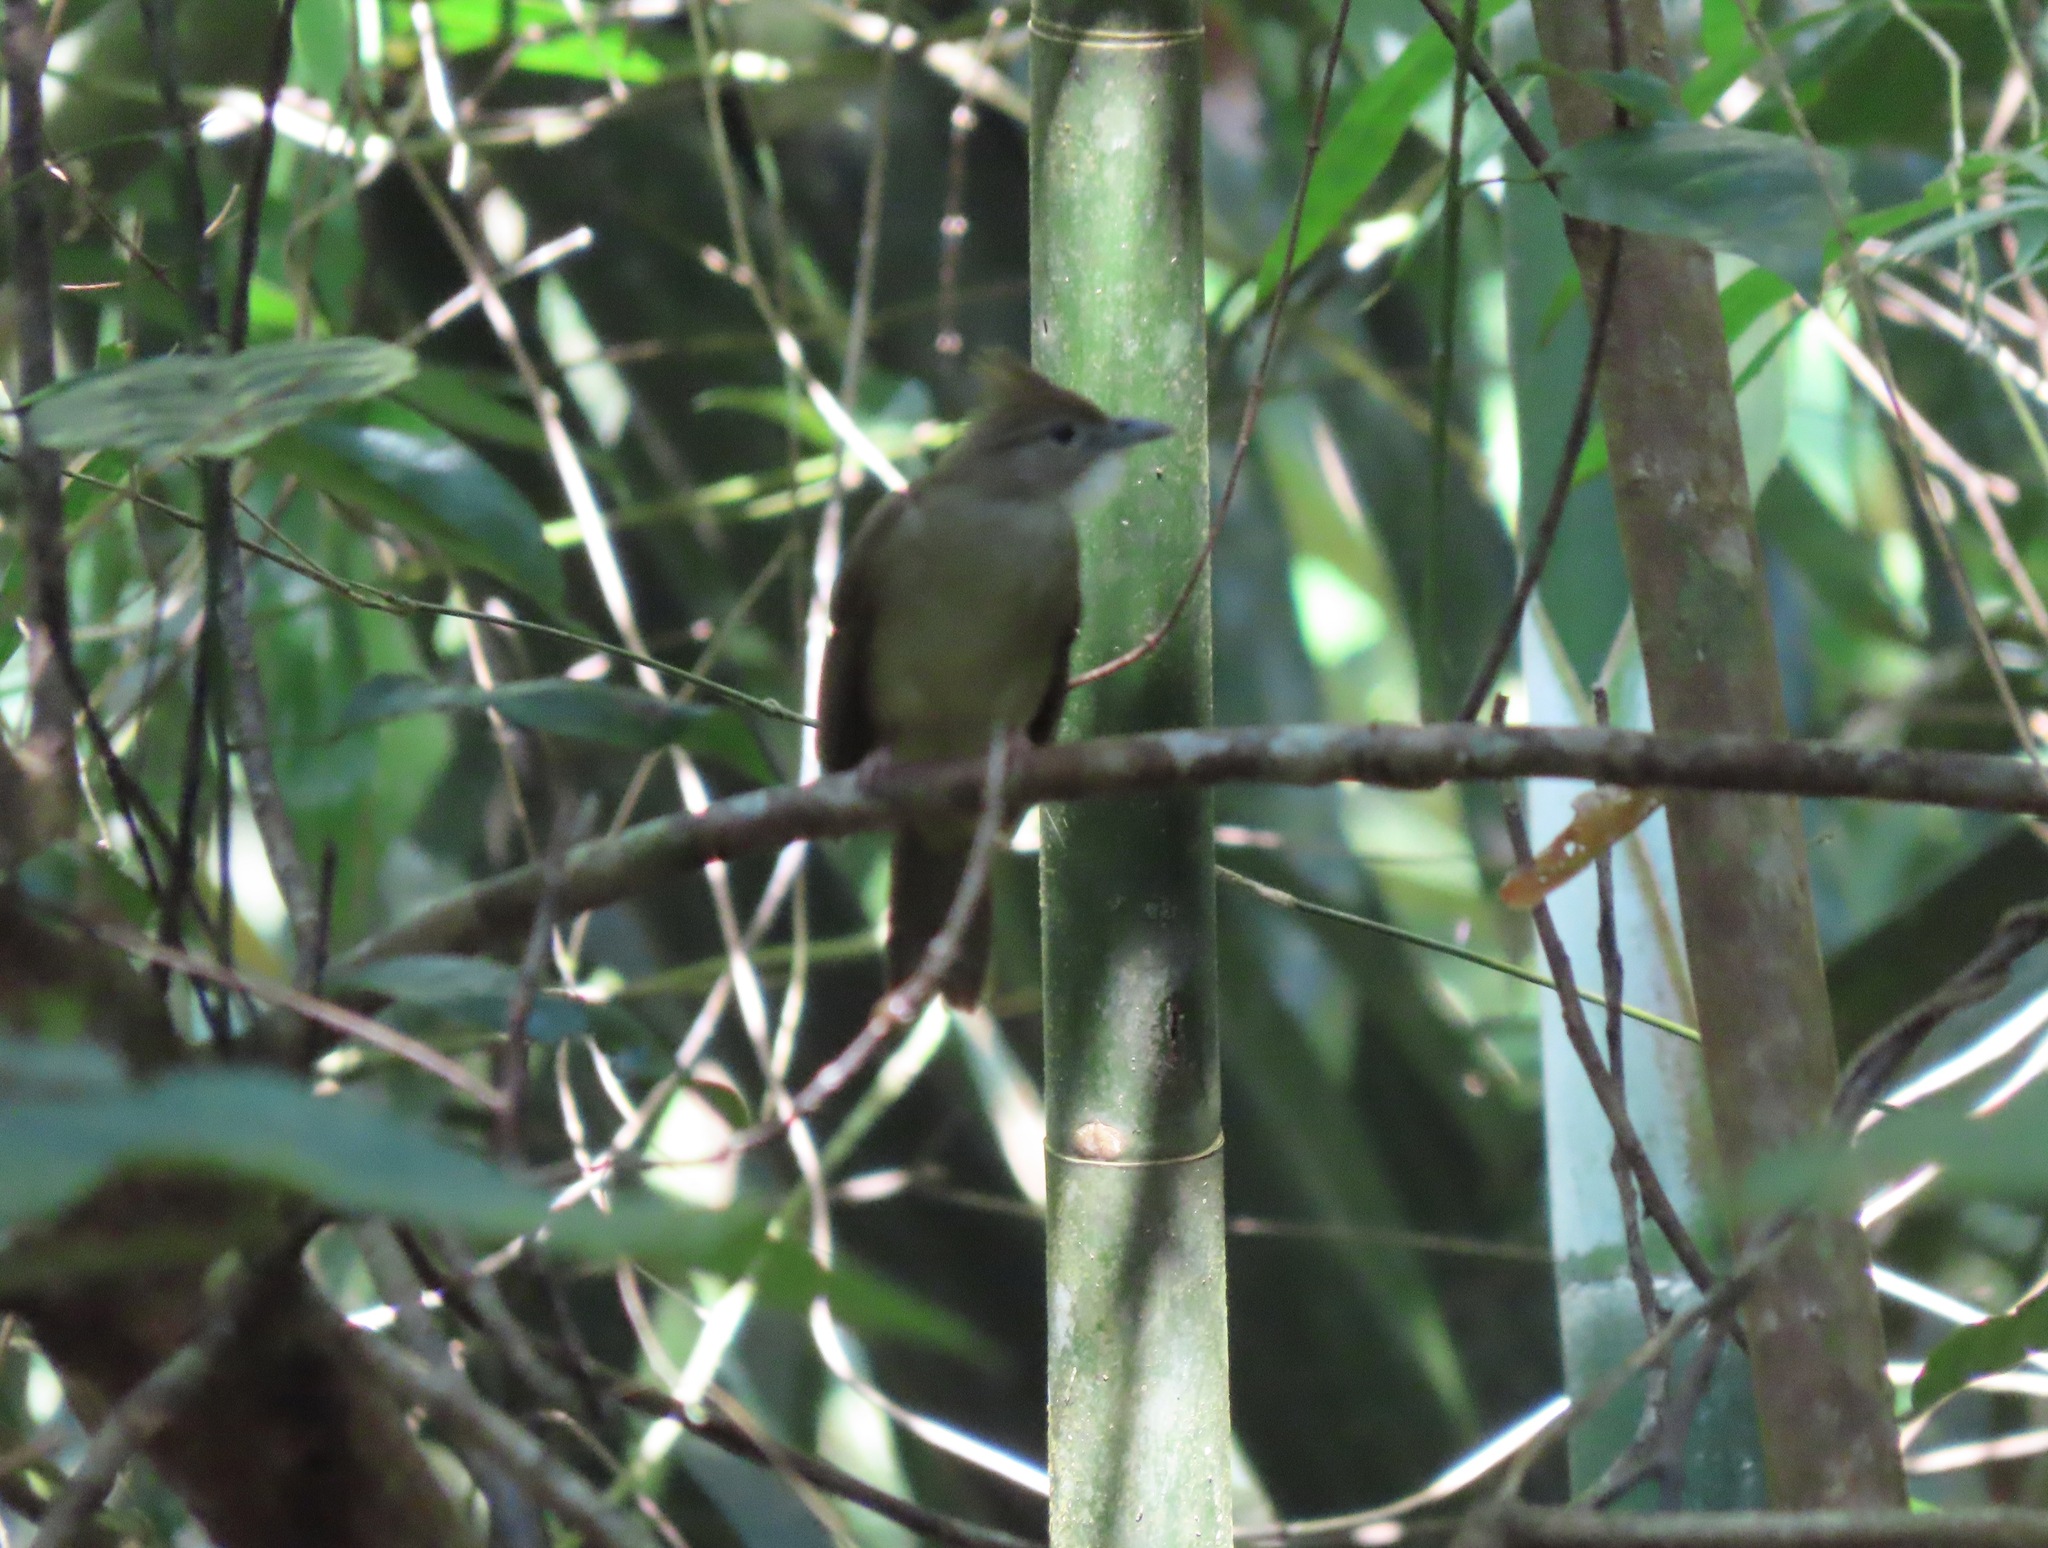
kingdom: Animalia
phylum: Chordata
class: Aves
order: Passeriformes
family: Pycnonotidae
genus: Alophoixus
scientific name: Alophoixus ochraceus
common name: Ochraceous bulbul
